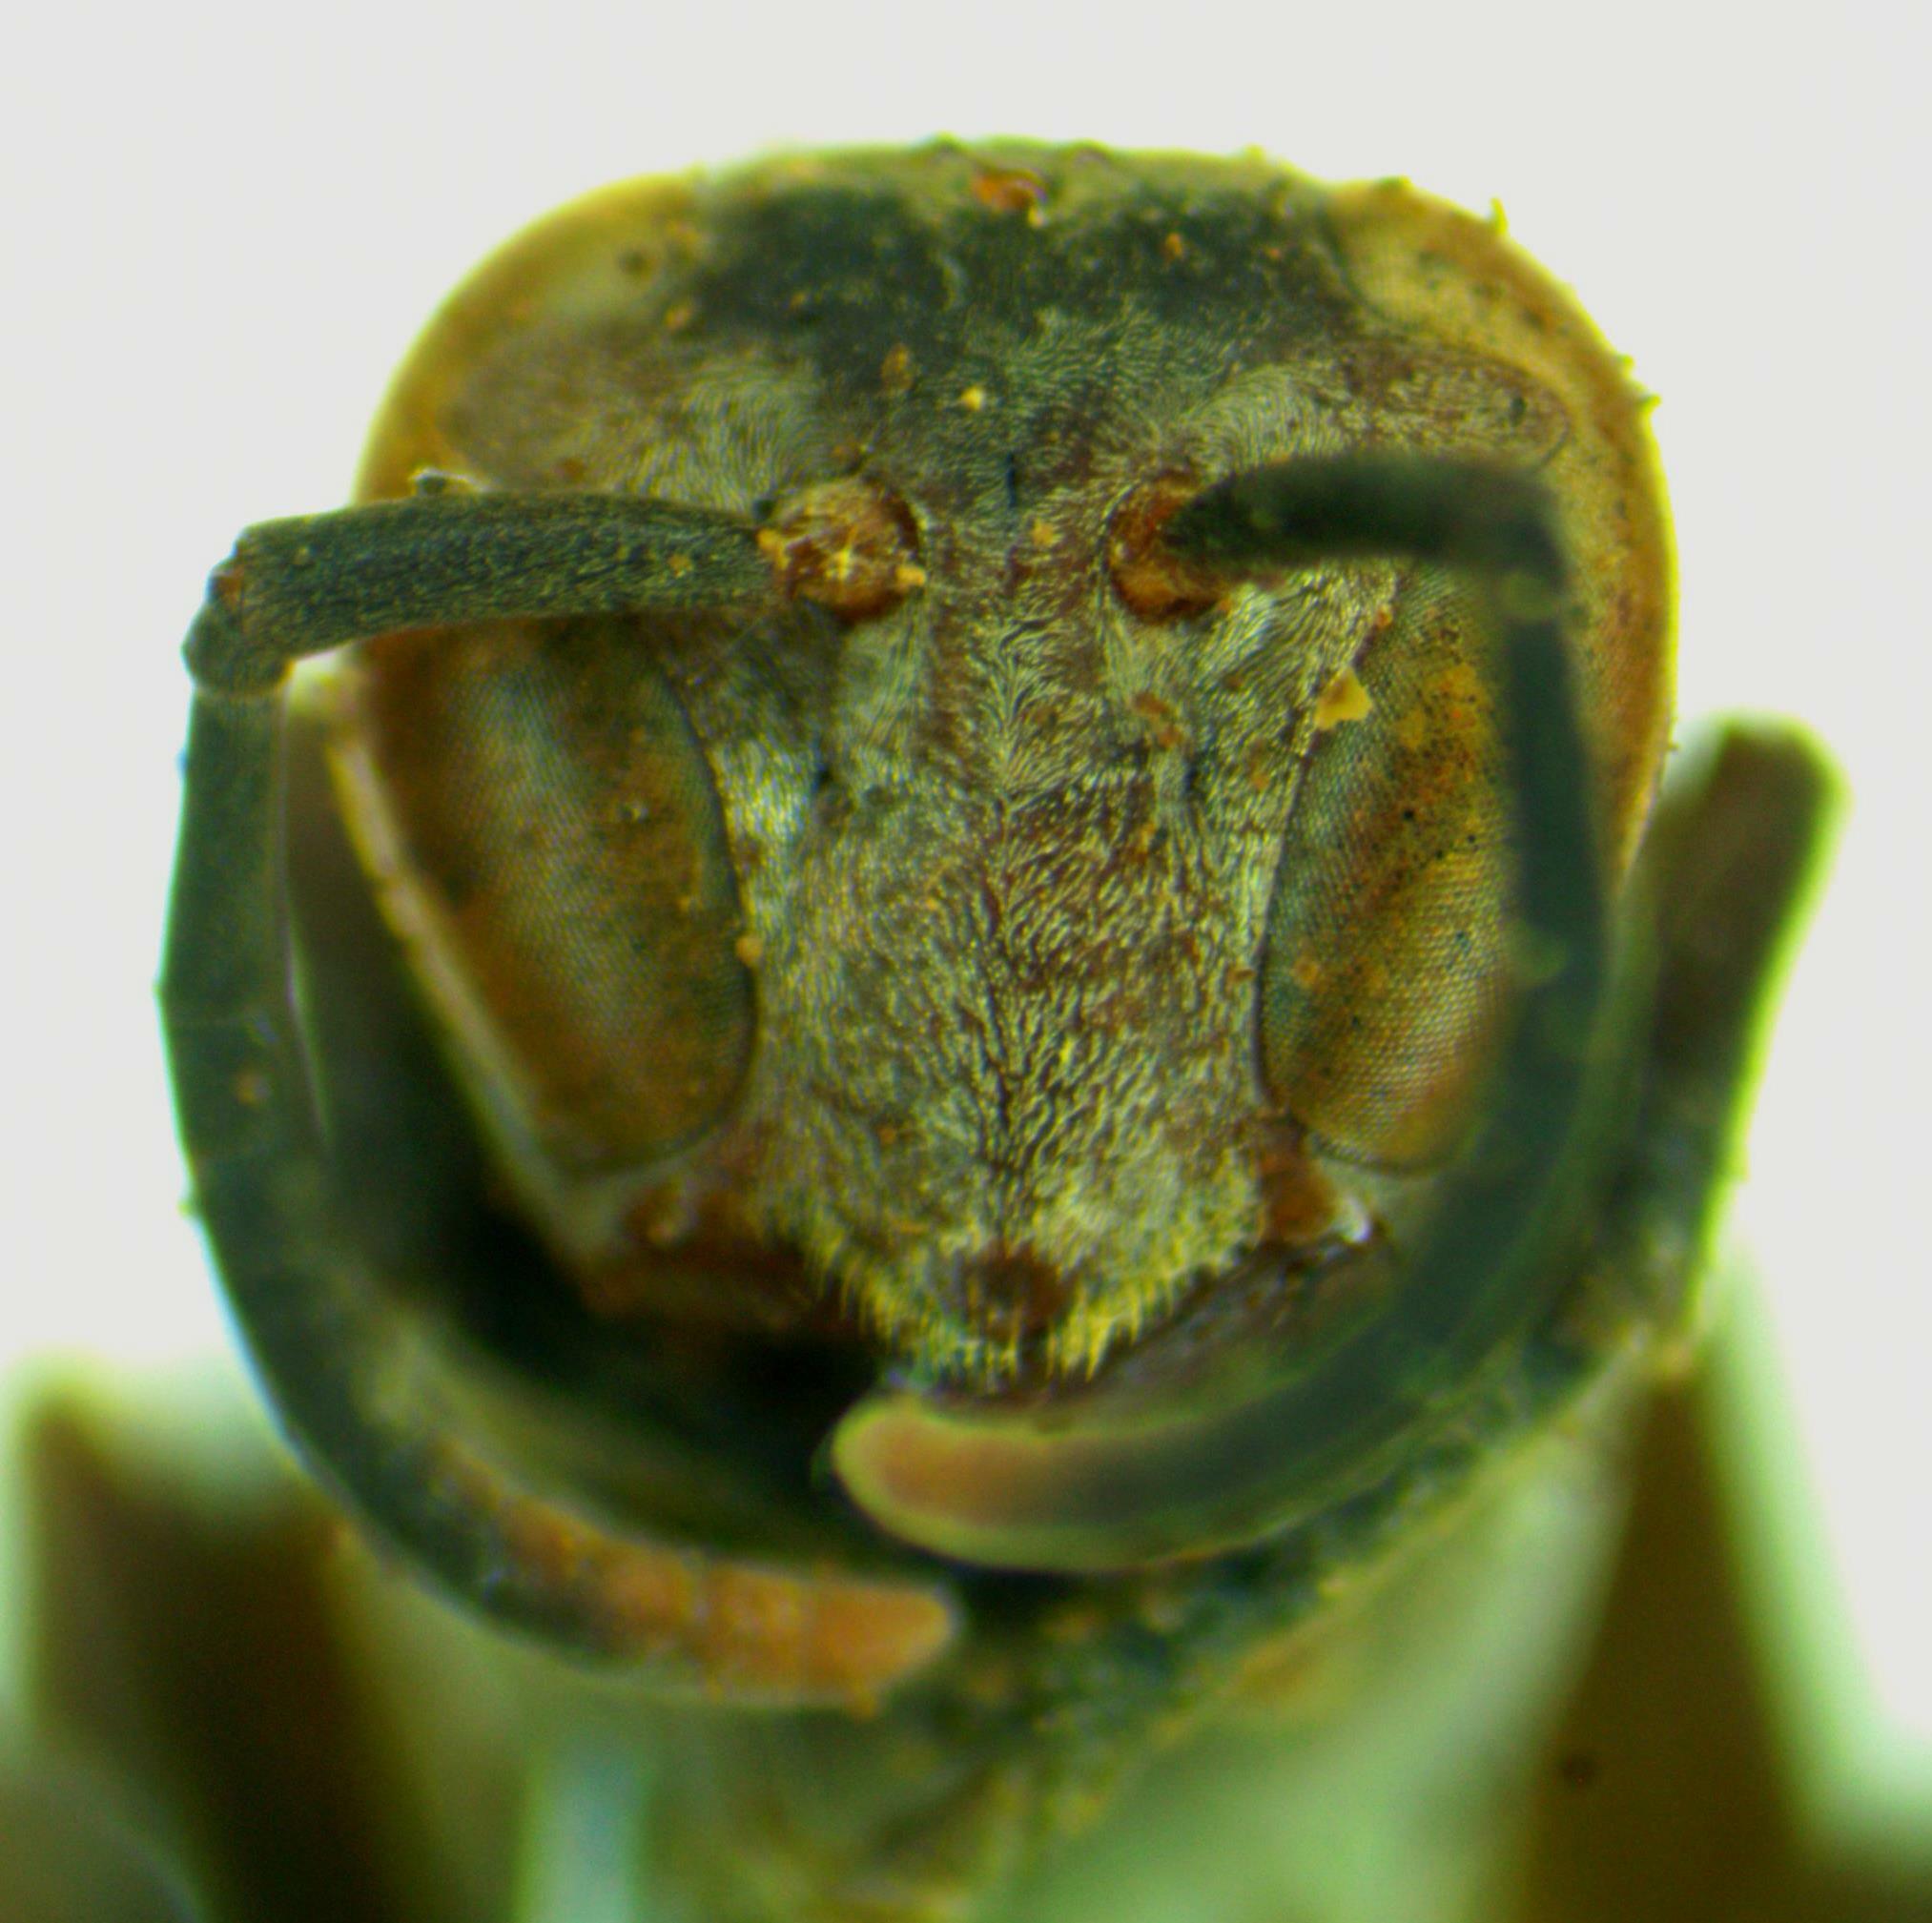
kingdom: Animalia
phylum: Arthropoda
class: Insecta
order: Hymenoptera
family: Vespidae
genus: Mischocyttarus
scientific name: Mischocyttarus rotundicollis
